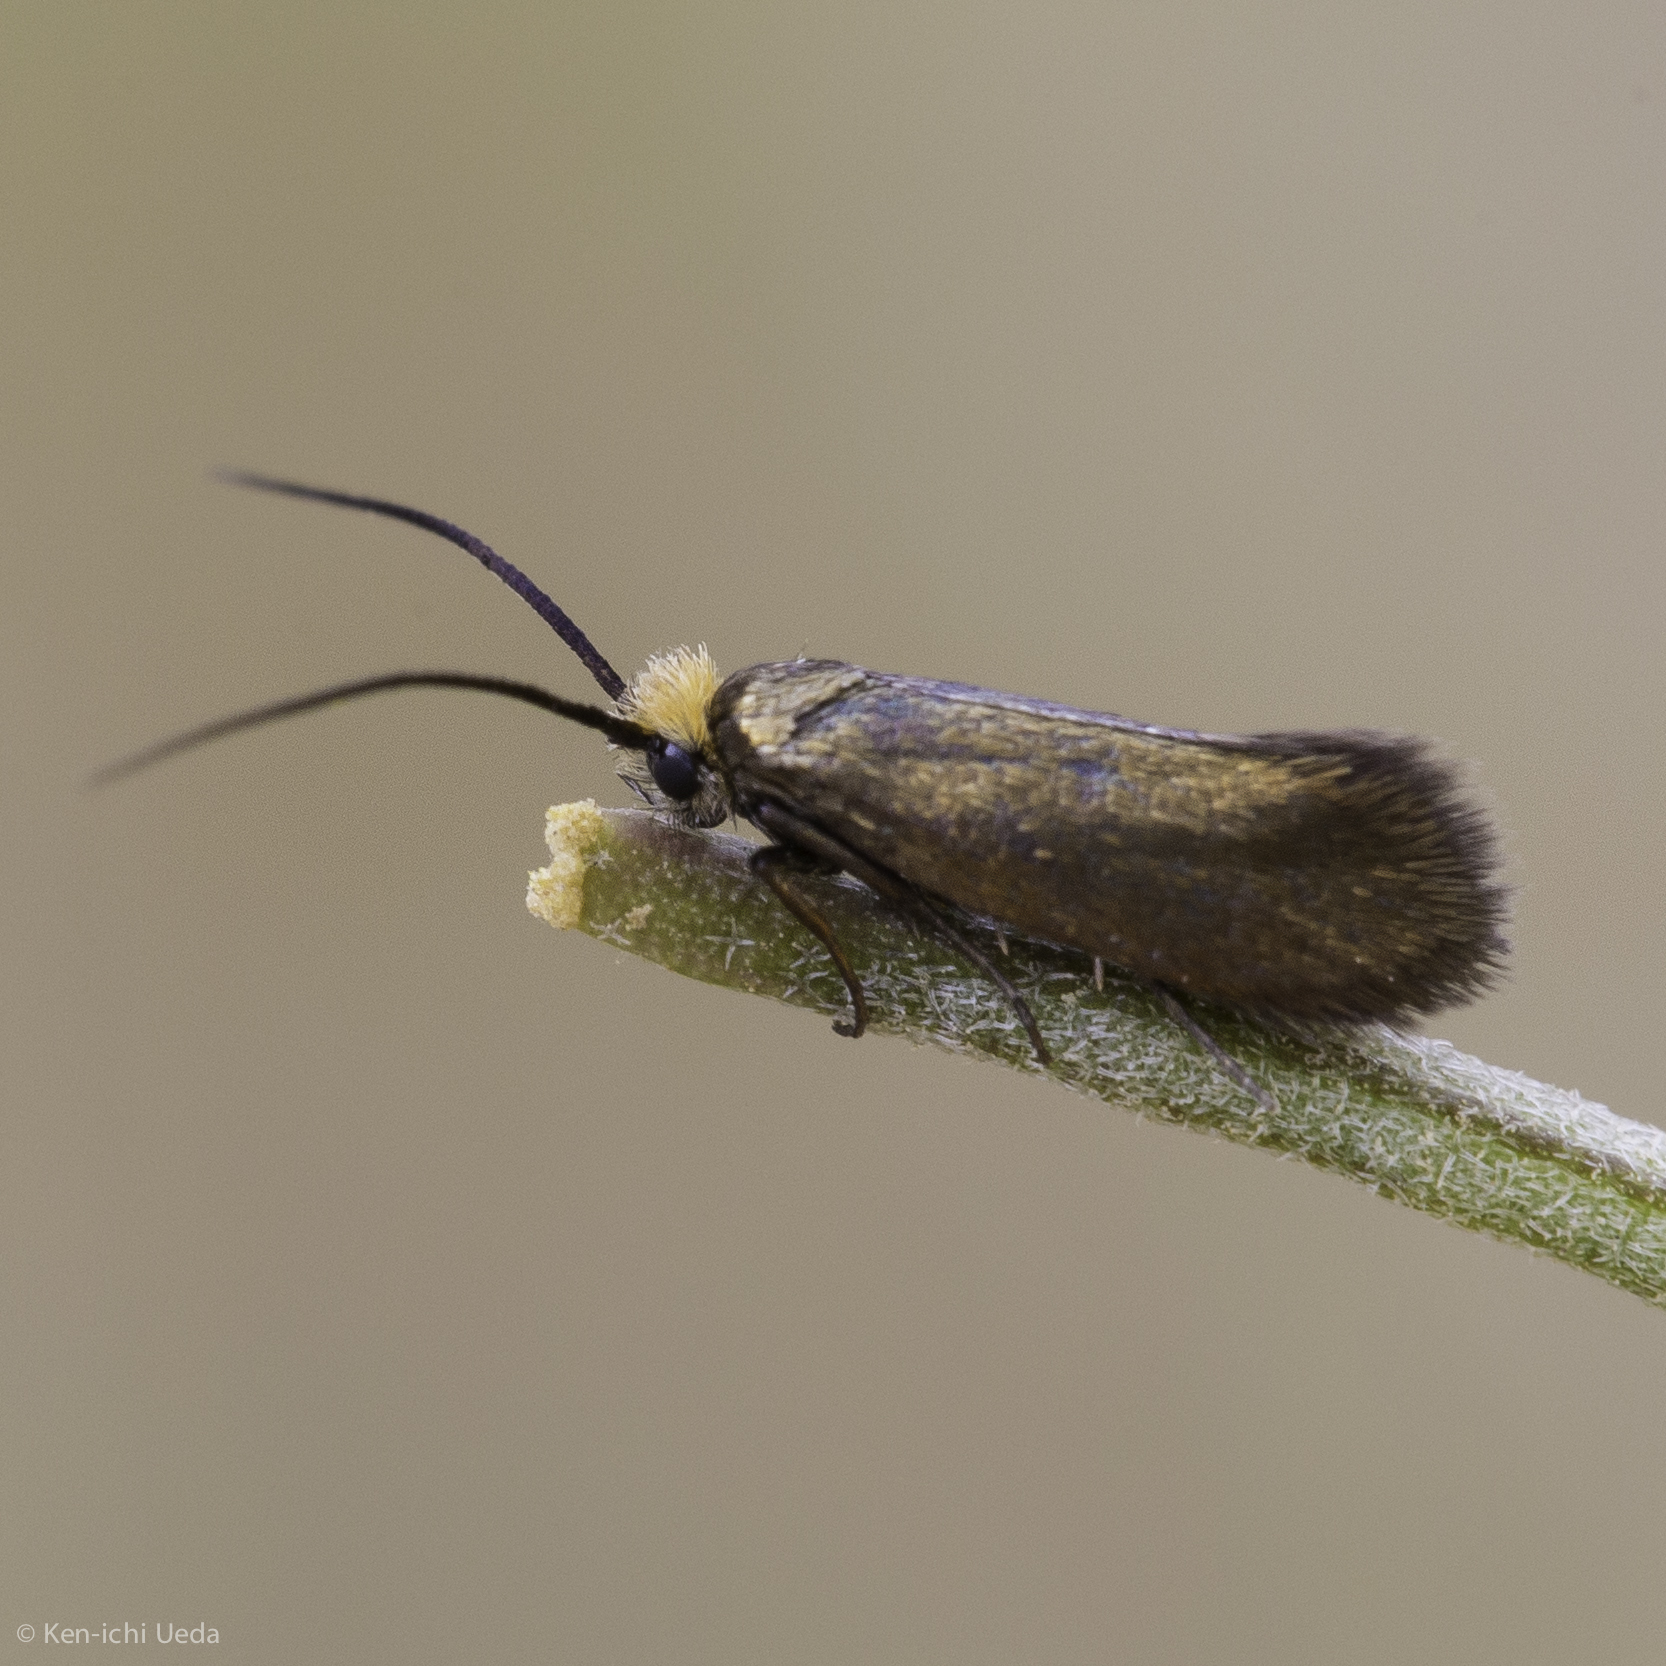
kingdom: Animalia
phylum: Arthropoda
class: Insecta
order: Lepidoptera
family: Adelidae
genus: Cauchas
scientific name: Cauchas simpliciella
